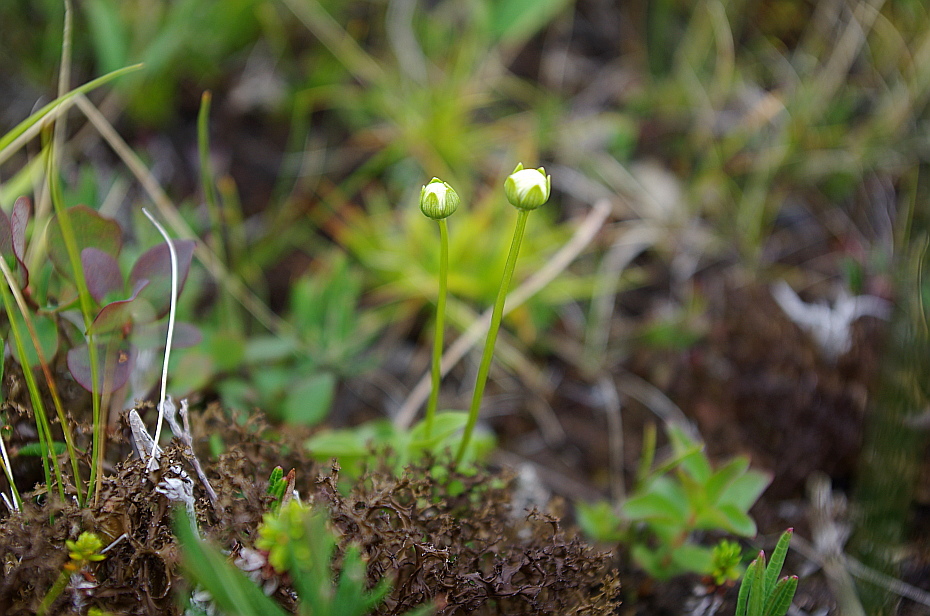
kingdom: Plantae
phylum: Tracheophyta
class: Magnoliopsida
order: Celastrales
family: Parnassiaceae
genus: Parnassia
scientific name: Parnassia palustris
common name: Grass-of-parnassus
